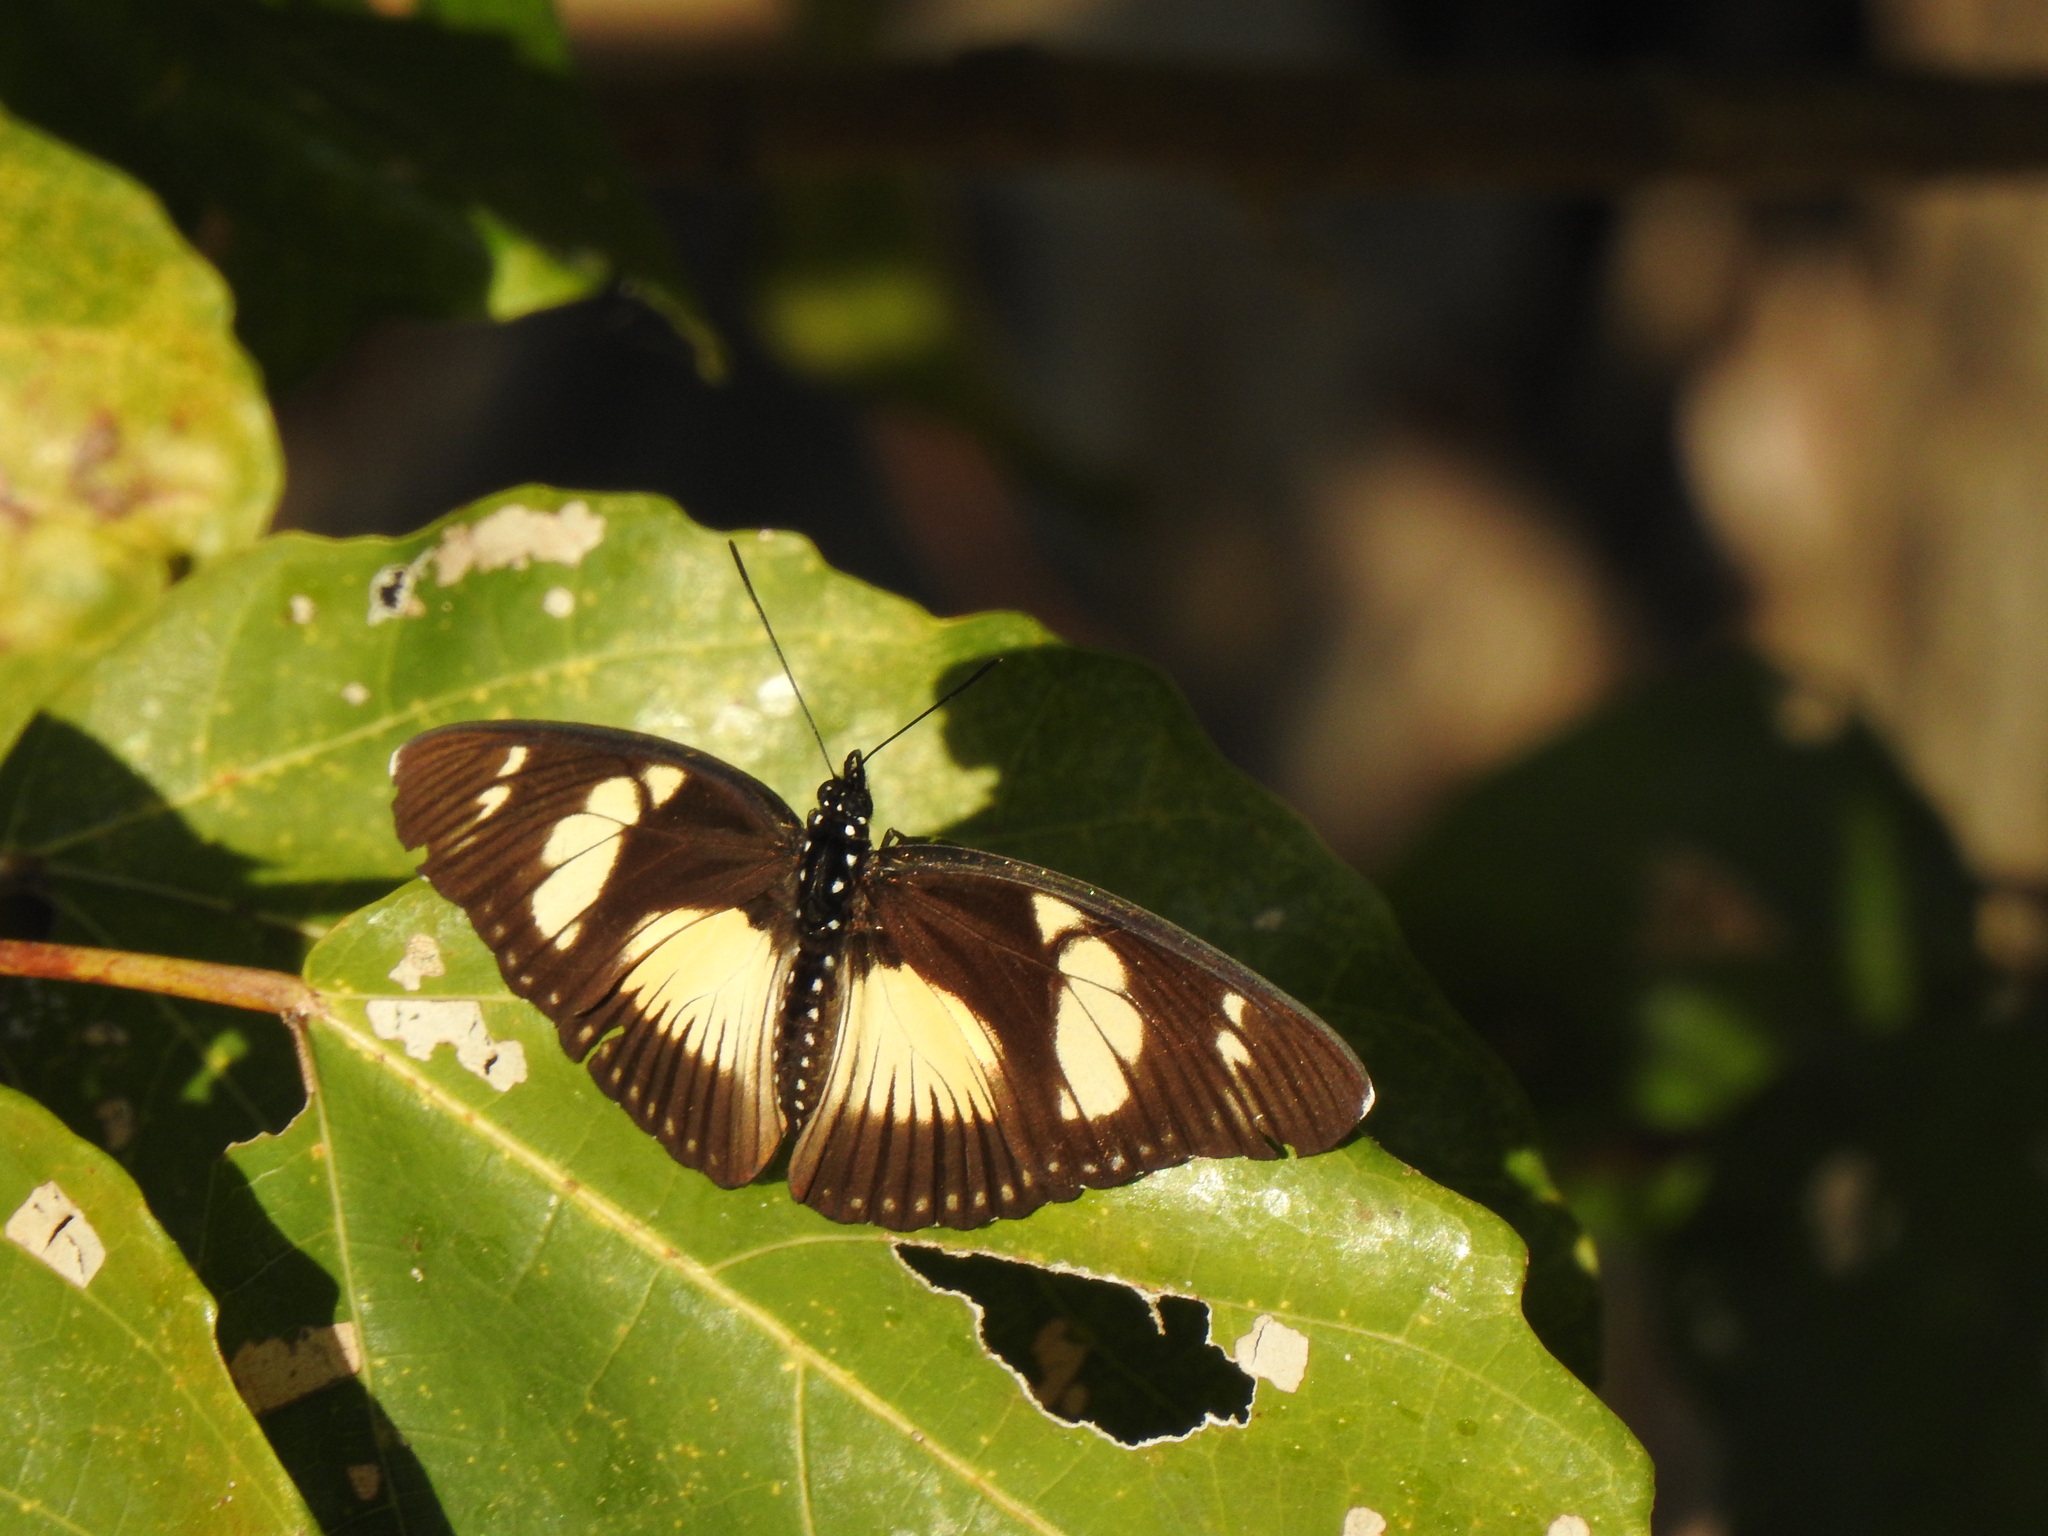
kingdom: Animalia
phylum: Arthropoda
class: Insecta
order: Lepidoptera
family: Nymphalidae
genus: Chloropoea
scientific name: Chloropoea lucretia
